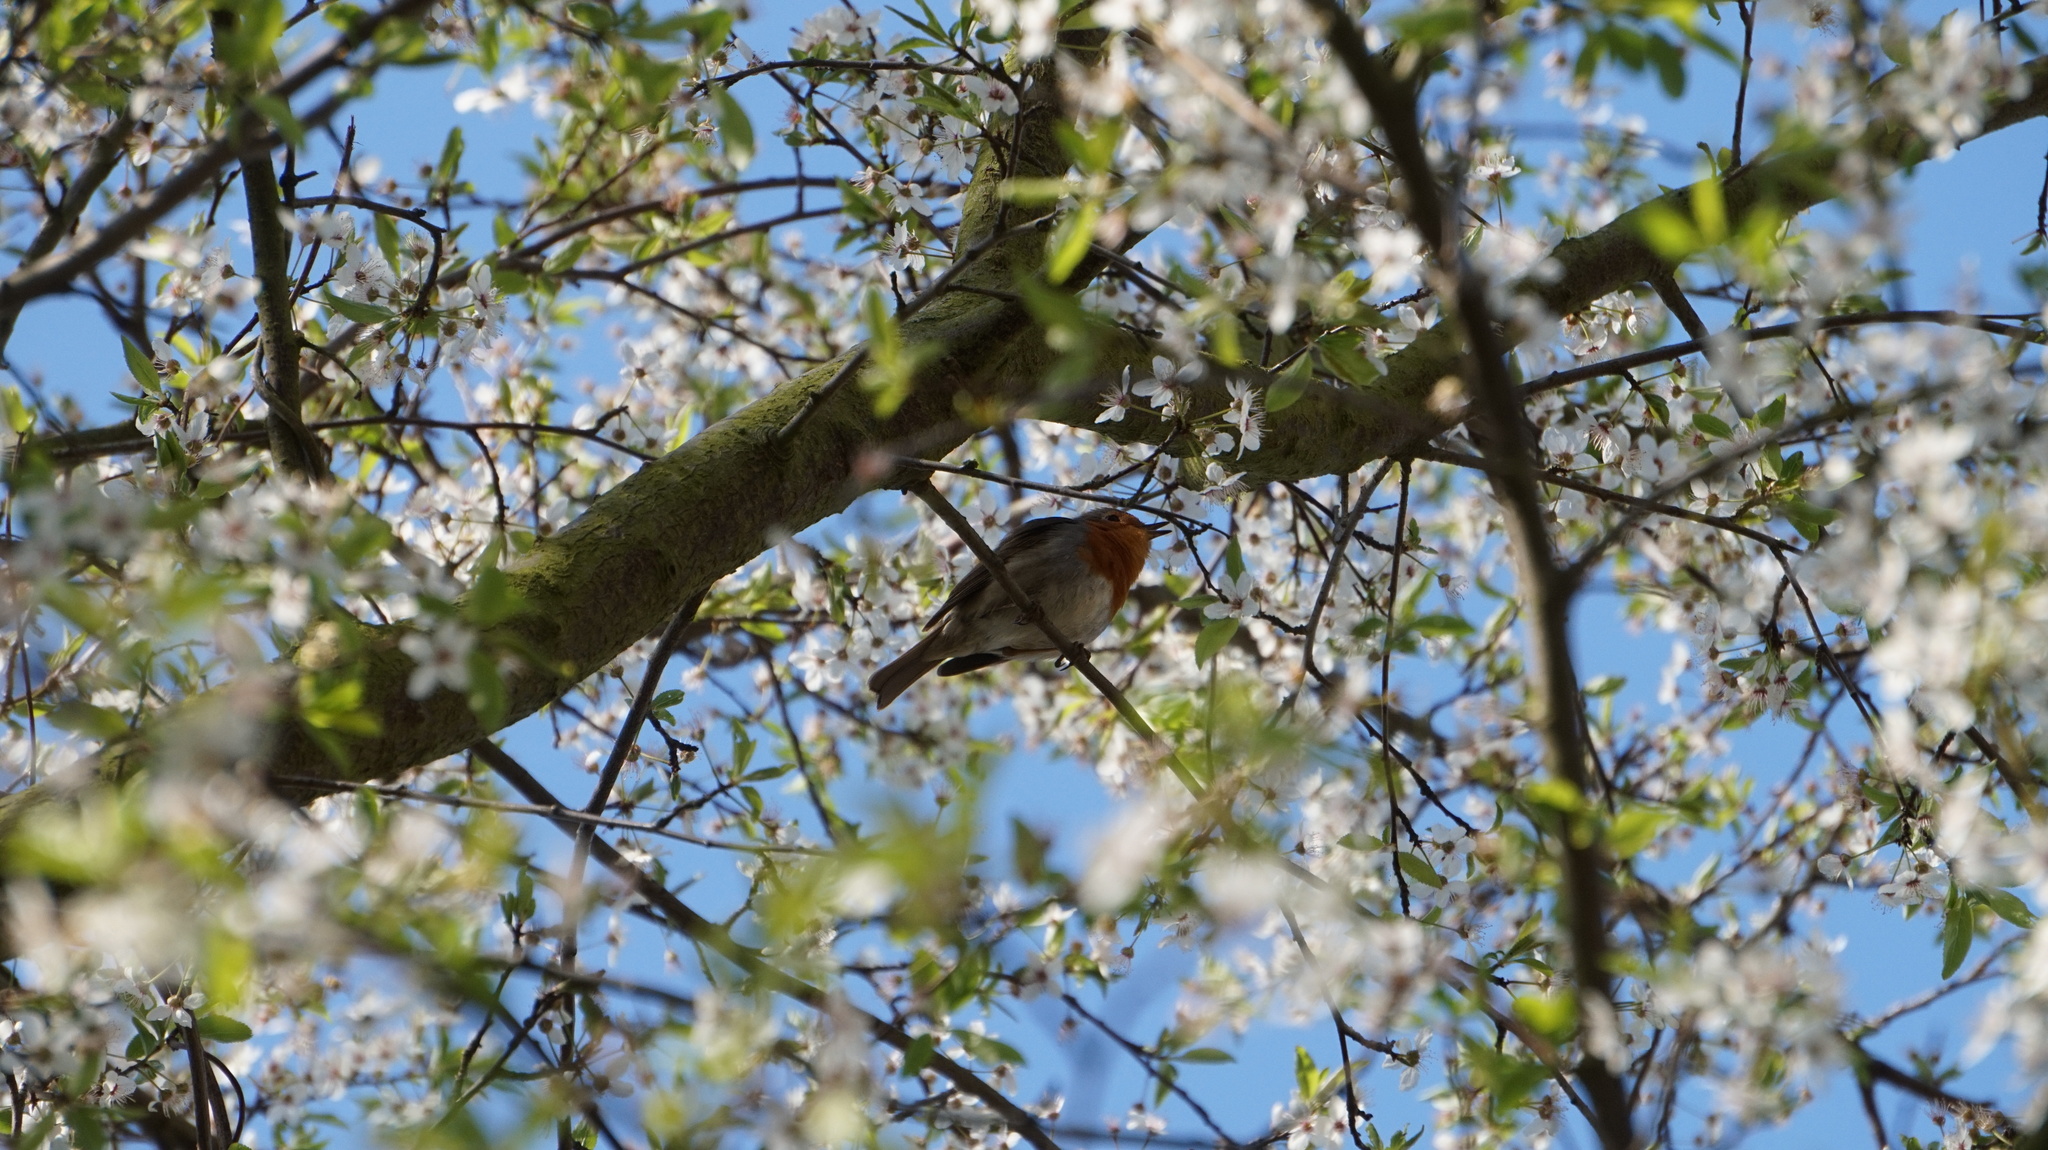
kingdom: Animalia
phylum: Chordata
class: Aves
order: Passeriformes
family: Muscicapidae
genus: Erithacus
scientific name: Erithacus rubecula
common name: European robin
